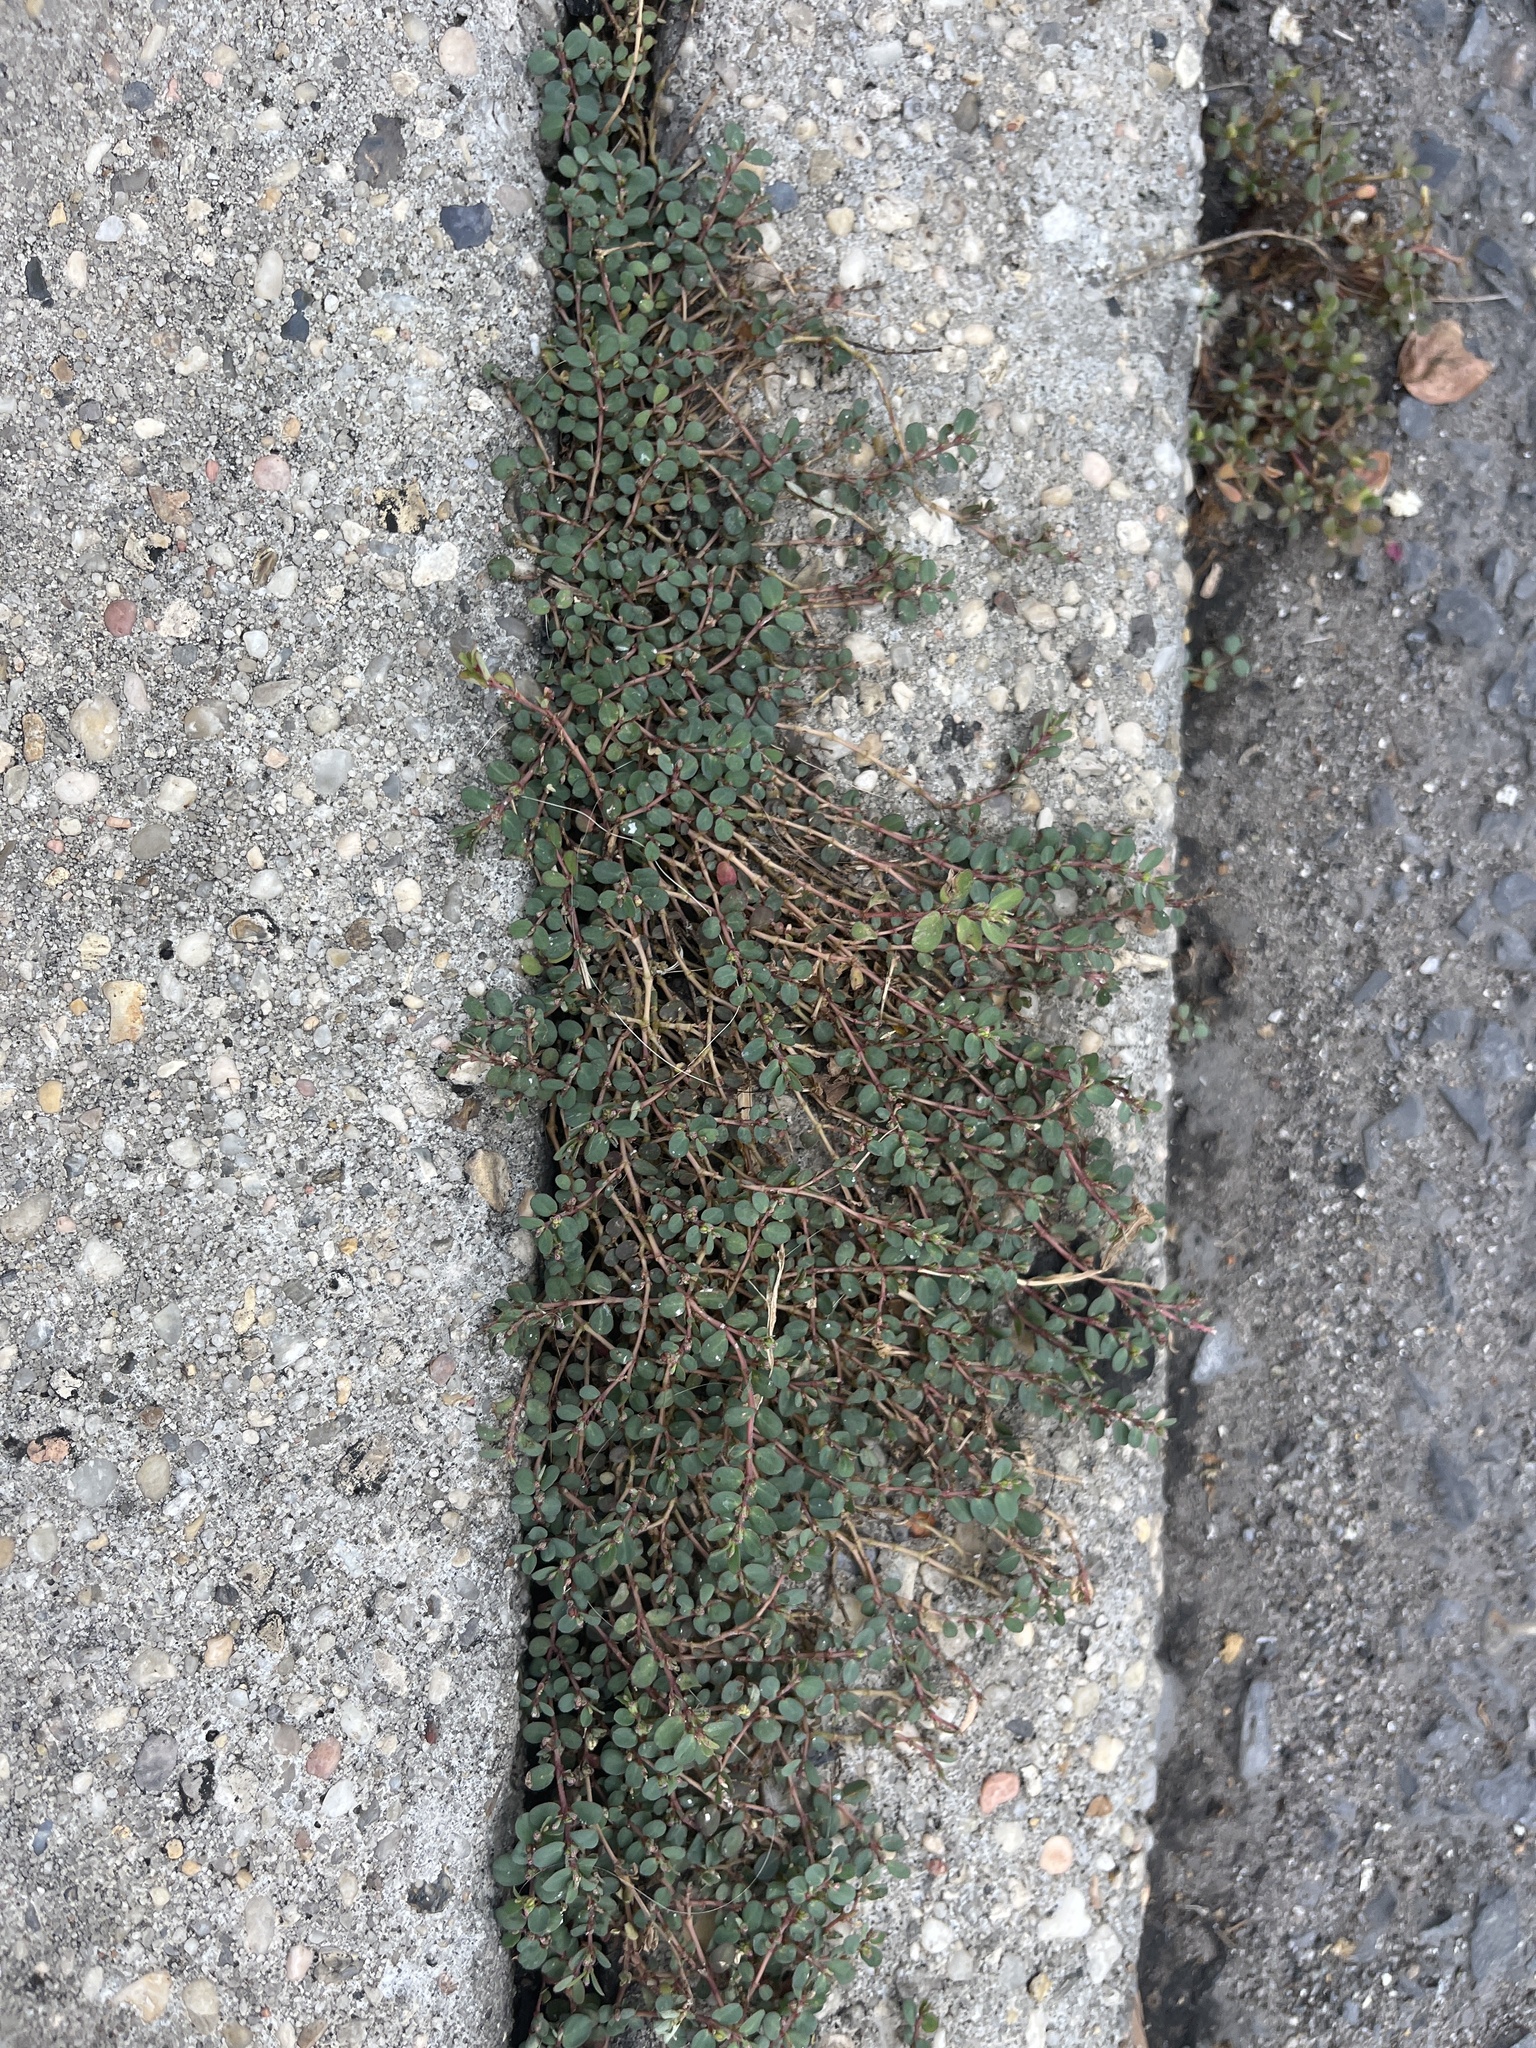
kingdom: Plantae
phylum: Tracheophyta
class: Magnoliopsida
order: Malpighiales
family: Euphorbiaceae
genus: Euphorbia
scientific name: Euphorbia prostrata
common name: Prostrate sandmat
